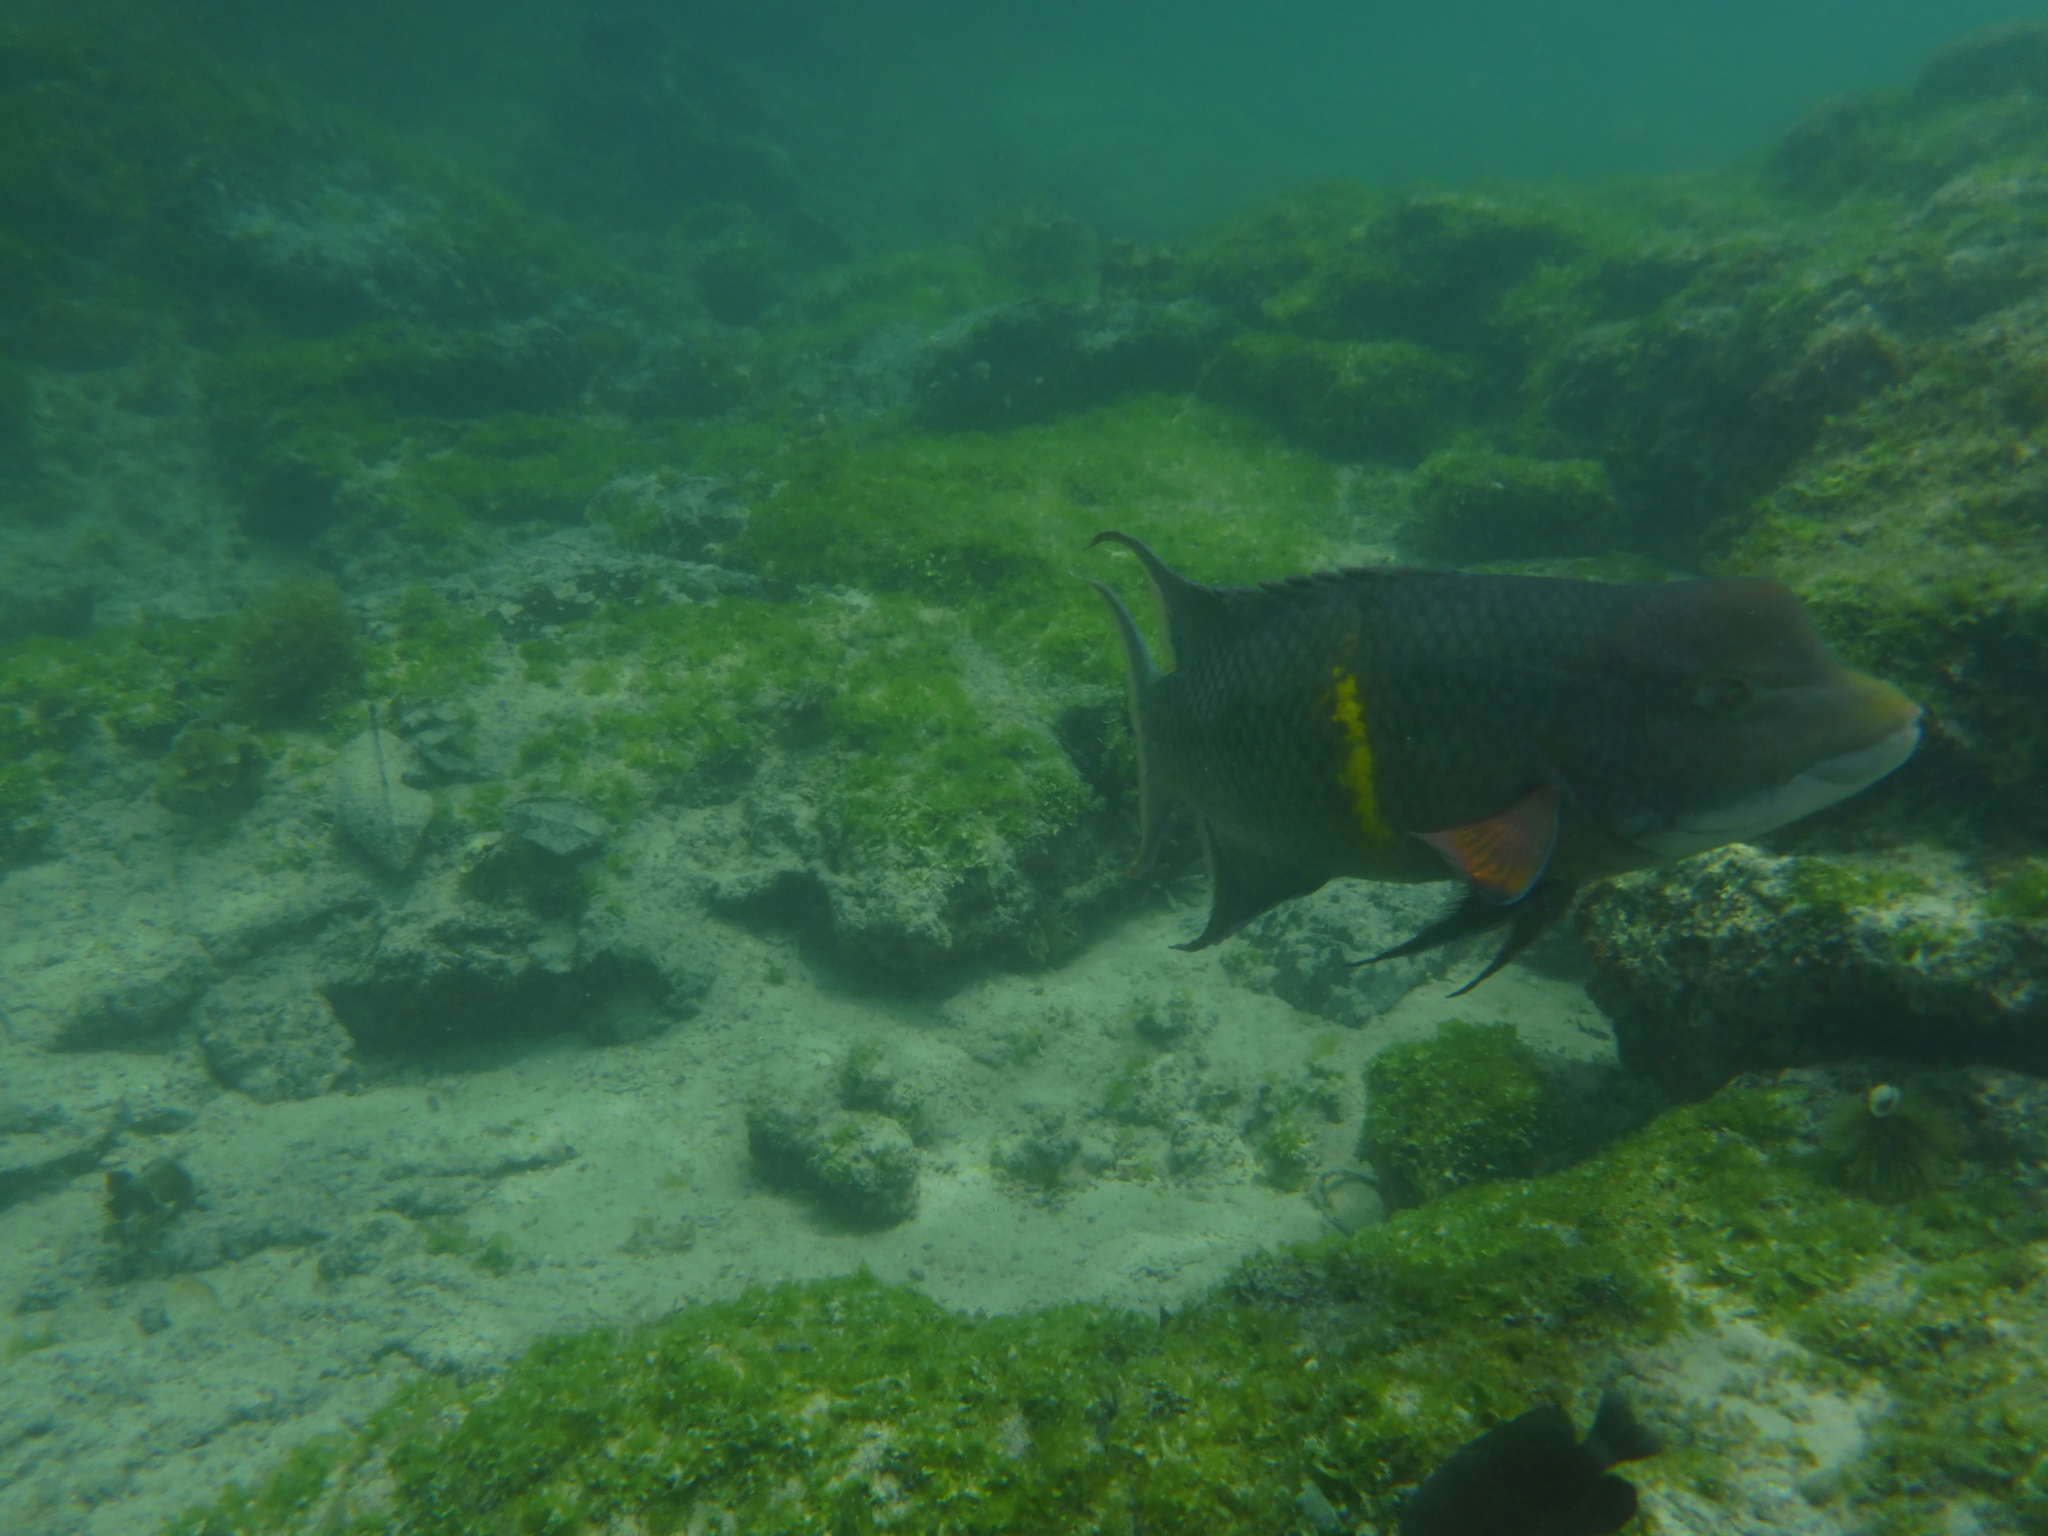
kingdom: Animalia
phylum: Chordata
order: Perciformes
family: Labridae
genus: Bodianus
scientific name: Bodianus diplotaenia
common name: Mexican hogfish
